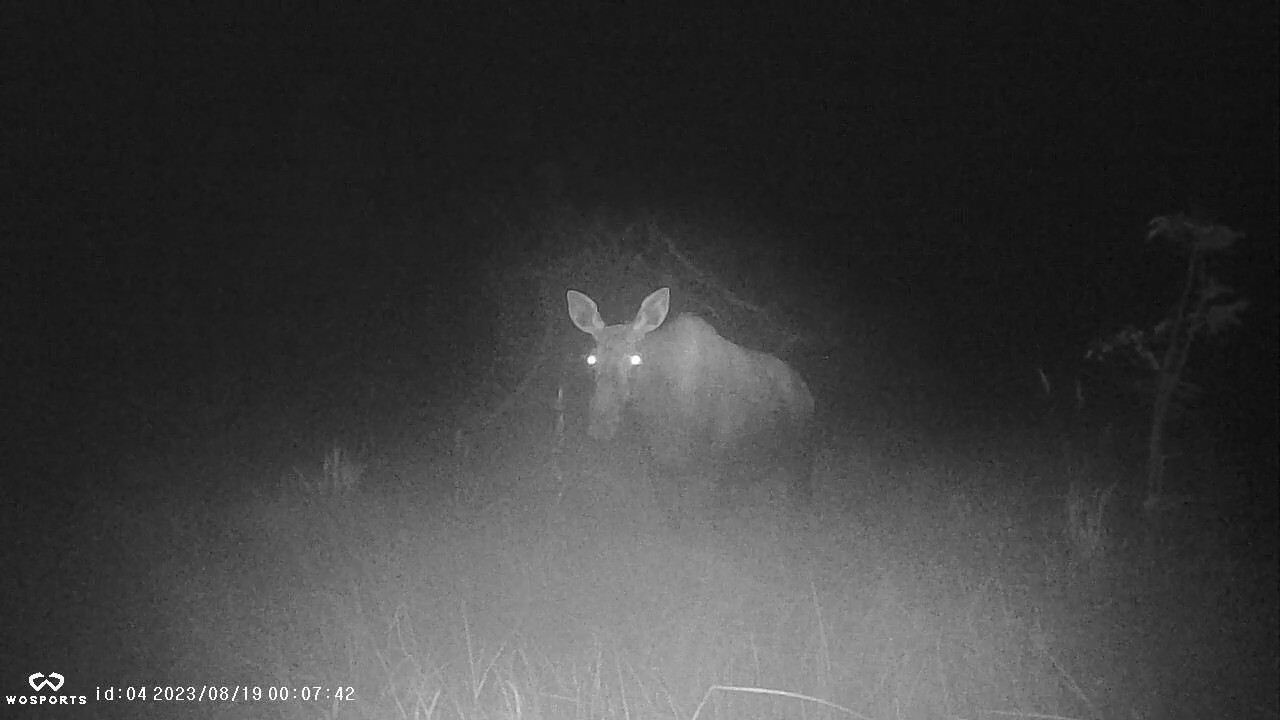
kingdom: Animalia
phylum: Chordata
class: Mammalia
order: Artiodactyla
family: Cervidae
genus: Alces
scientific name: Alces alces
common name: Moose
